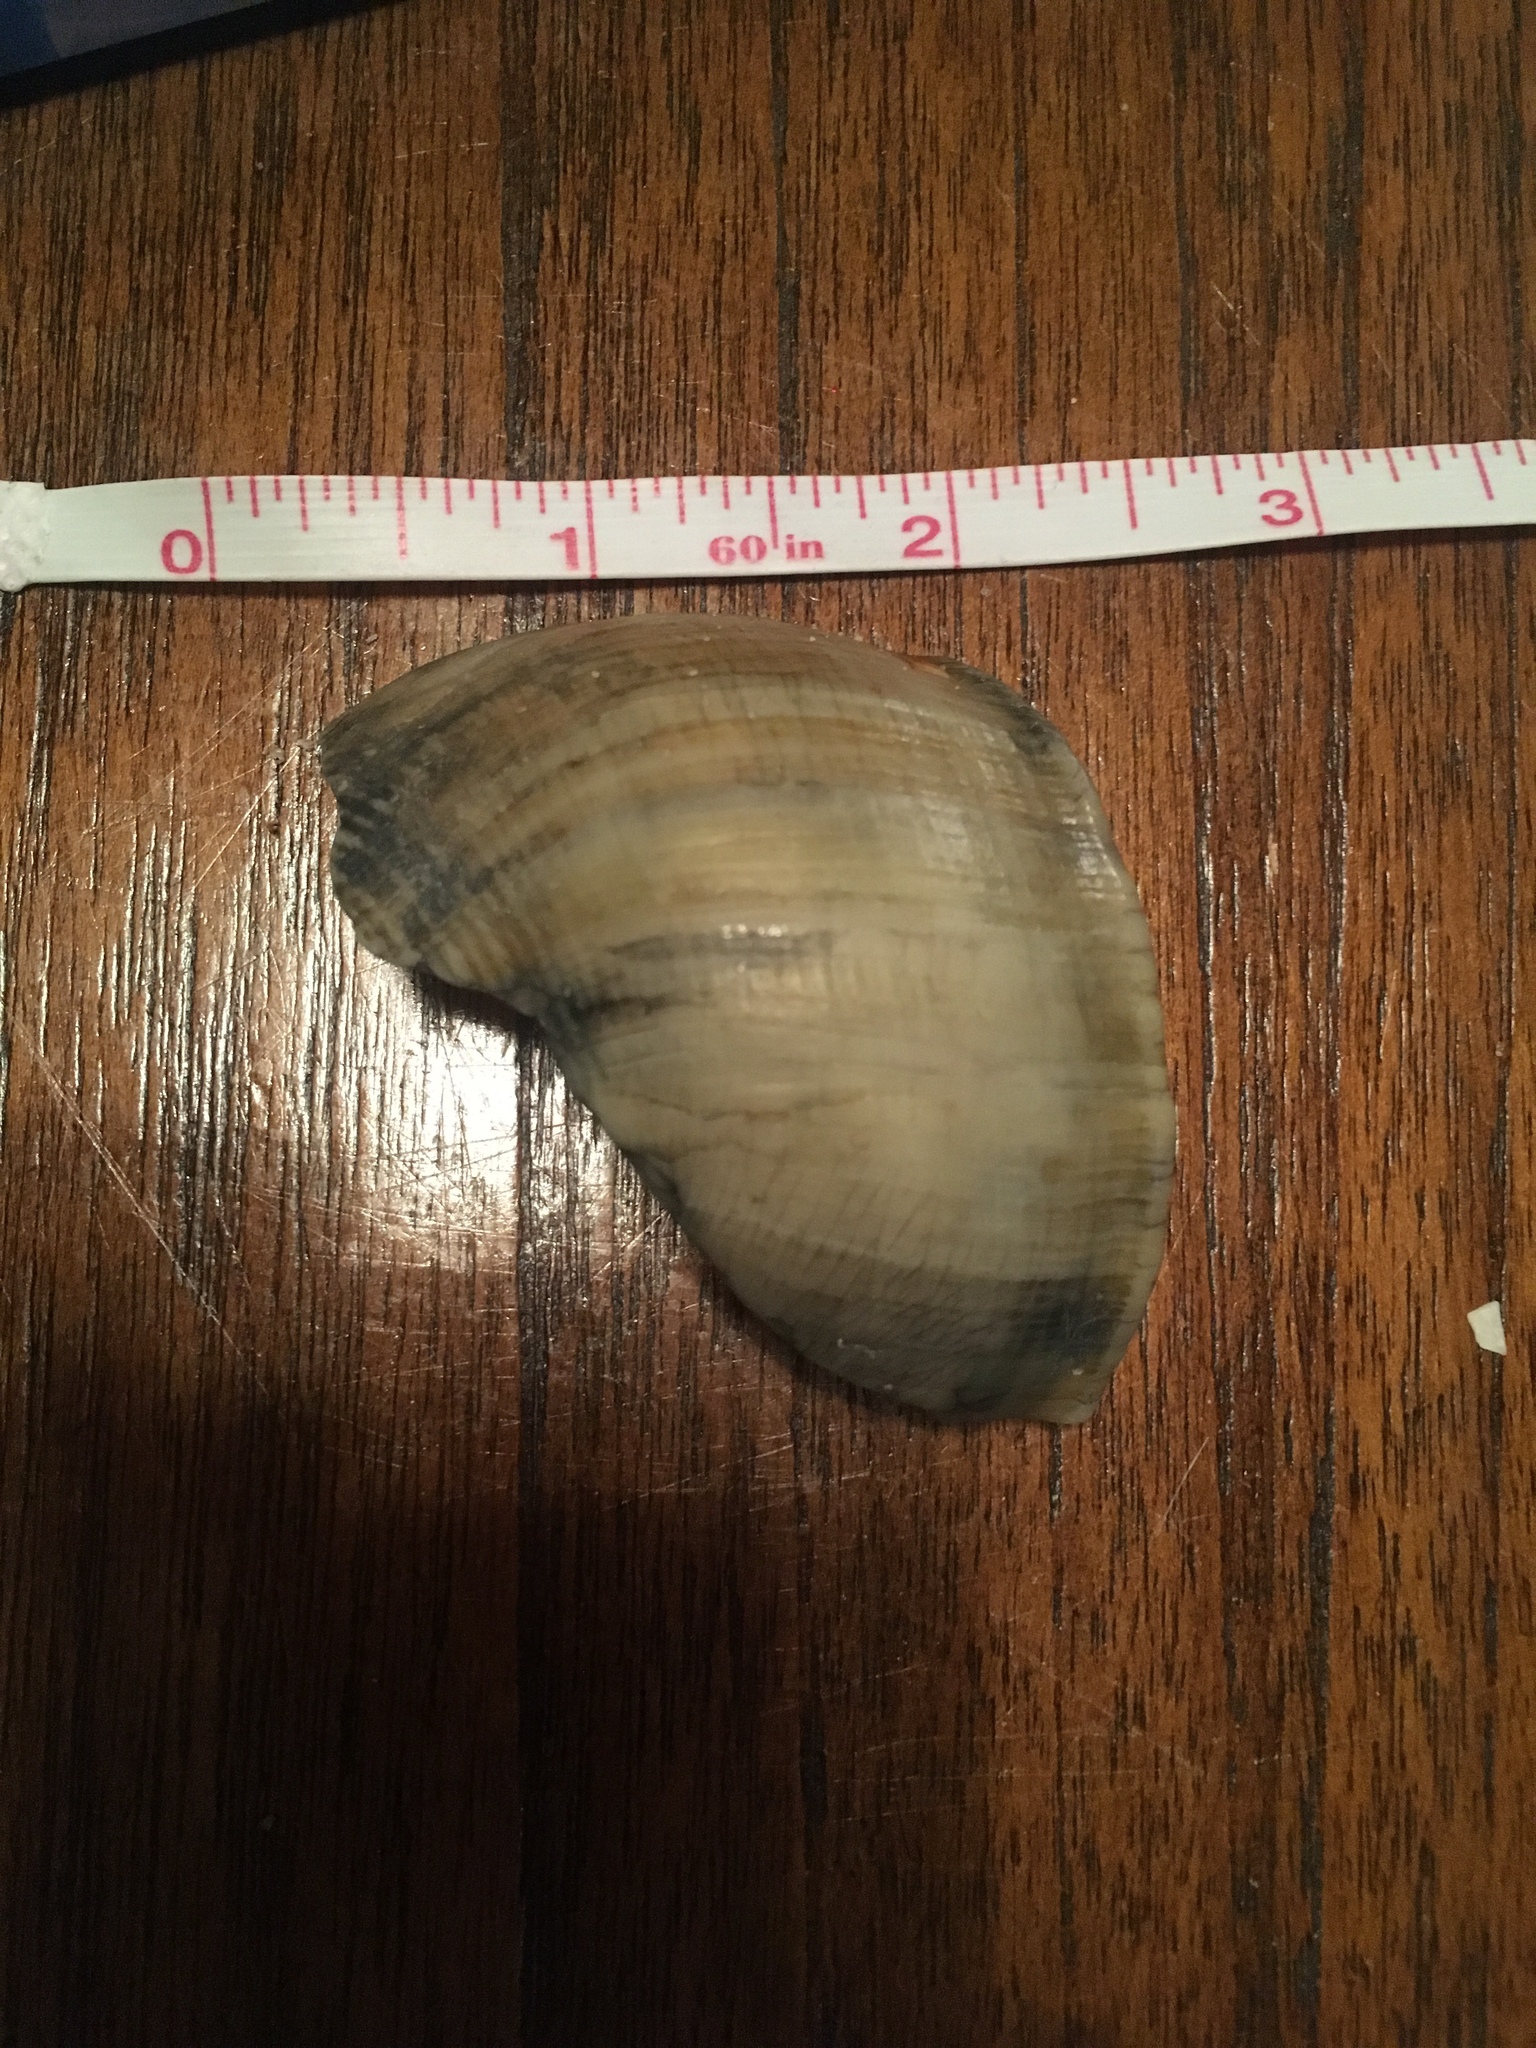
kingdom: Animalia
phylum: Mollusca
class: Gastropoda
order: Neogastropoda
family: Busyconidae
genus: Busycotypus
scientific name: Busycotypus canaliculatus
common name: Channeled whelk
